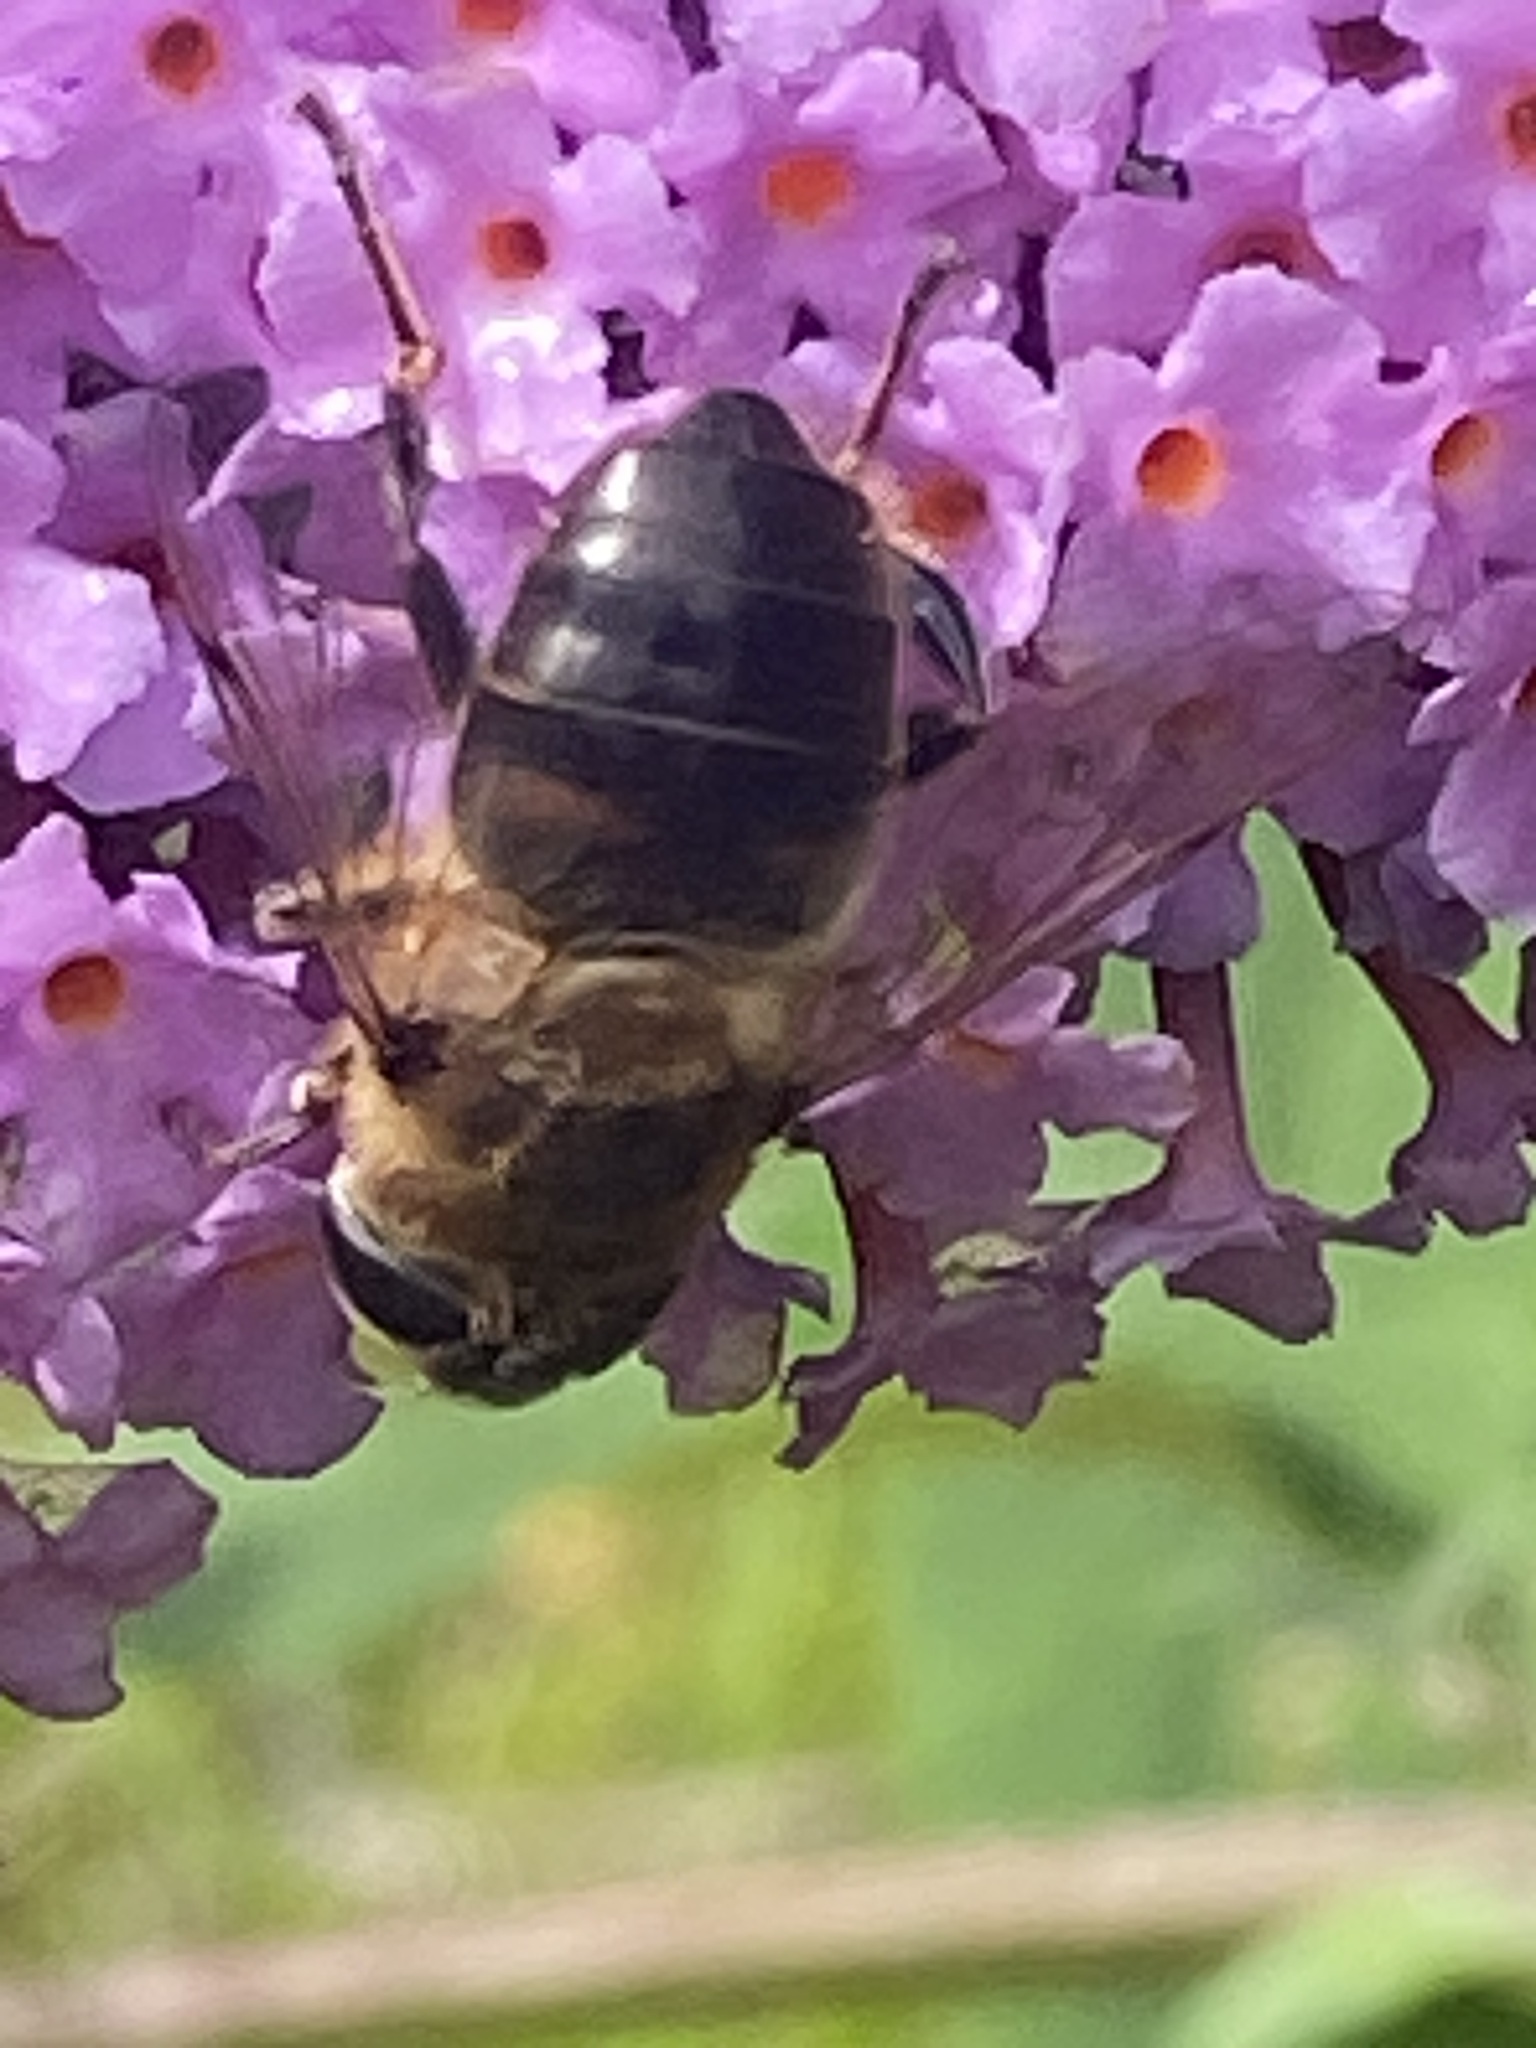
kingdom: Animalia
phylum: Arthropoda
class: Insecta
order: Diptera
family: Syrphidae
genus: Eristalis
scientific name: Eristalis tenax
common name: Drone fly
